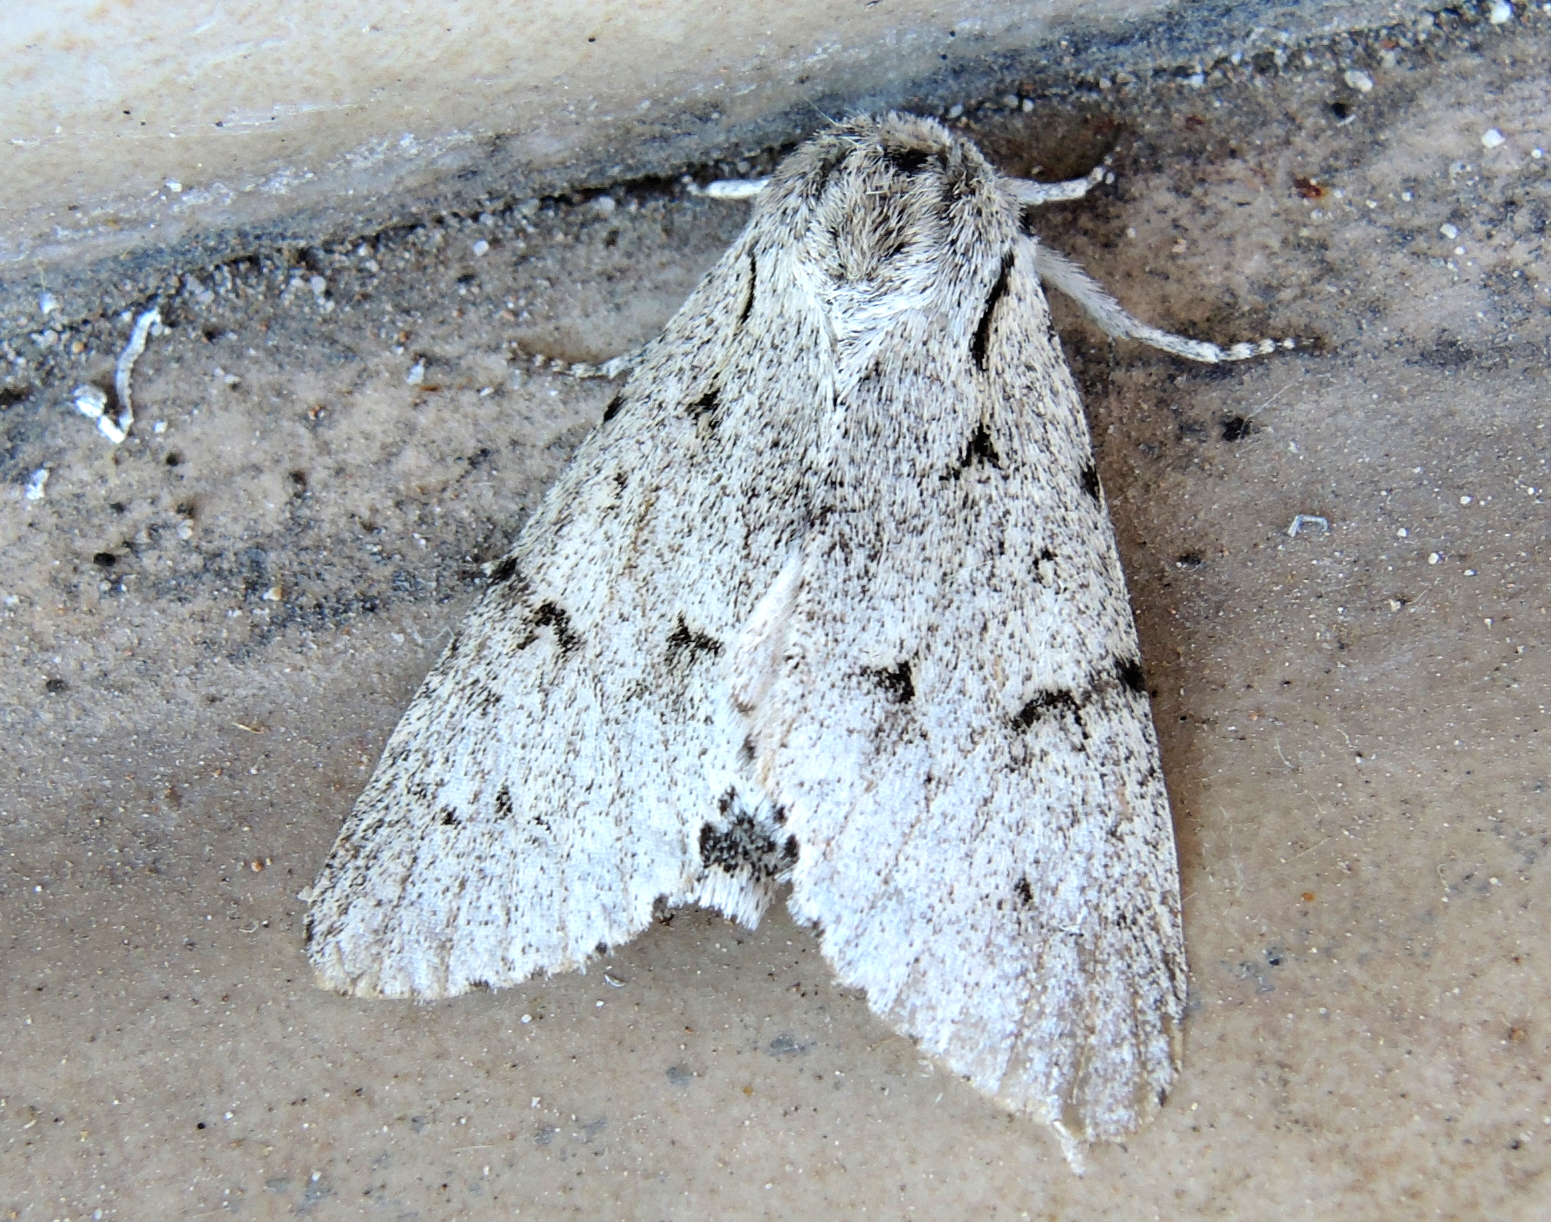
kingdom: Animalia
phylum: Arthropoda
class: Insecta
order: Lepidoptera
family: Noctuidae
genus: Acronicta
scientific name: Acronicta leporina
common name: Miller
